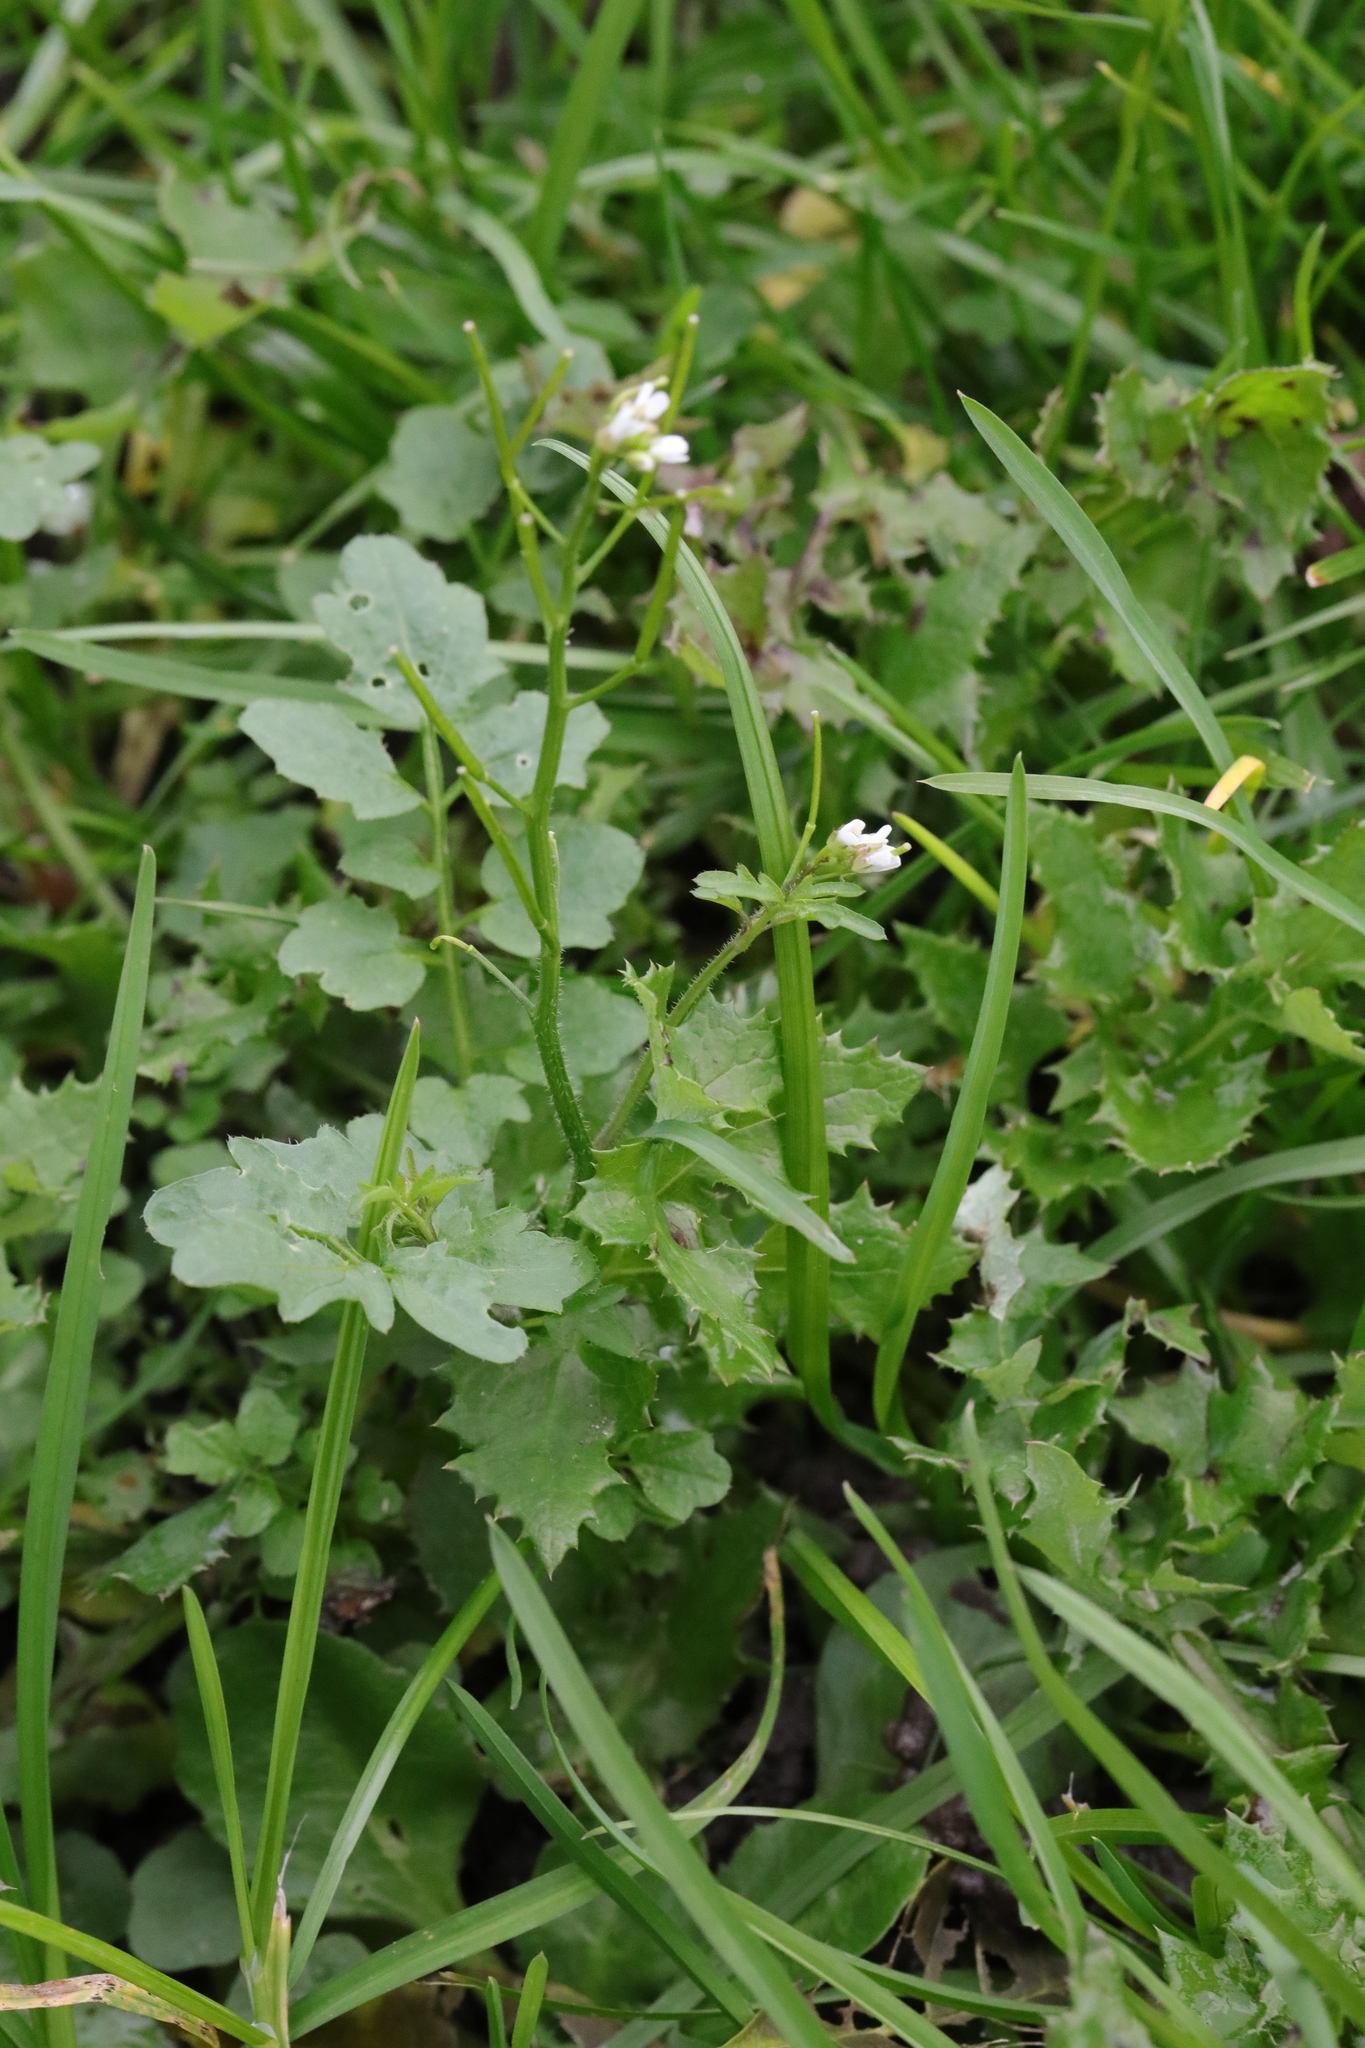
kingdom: Plantae
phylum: Tracheophyta
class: Magnoliopsida
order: Brassicales
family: Brassicaceae
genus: Cardamine
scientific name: Cardamine flexuosa
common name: Woodland bittercress
